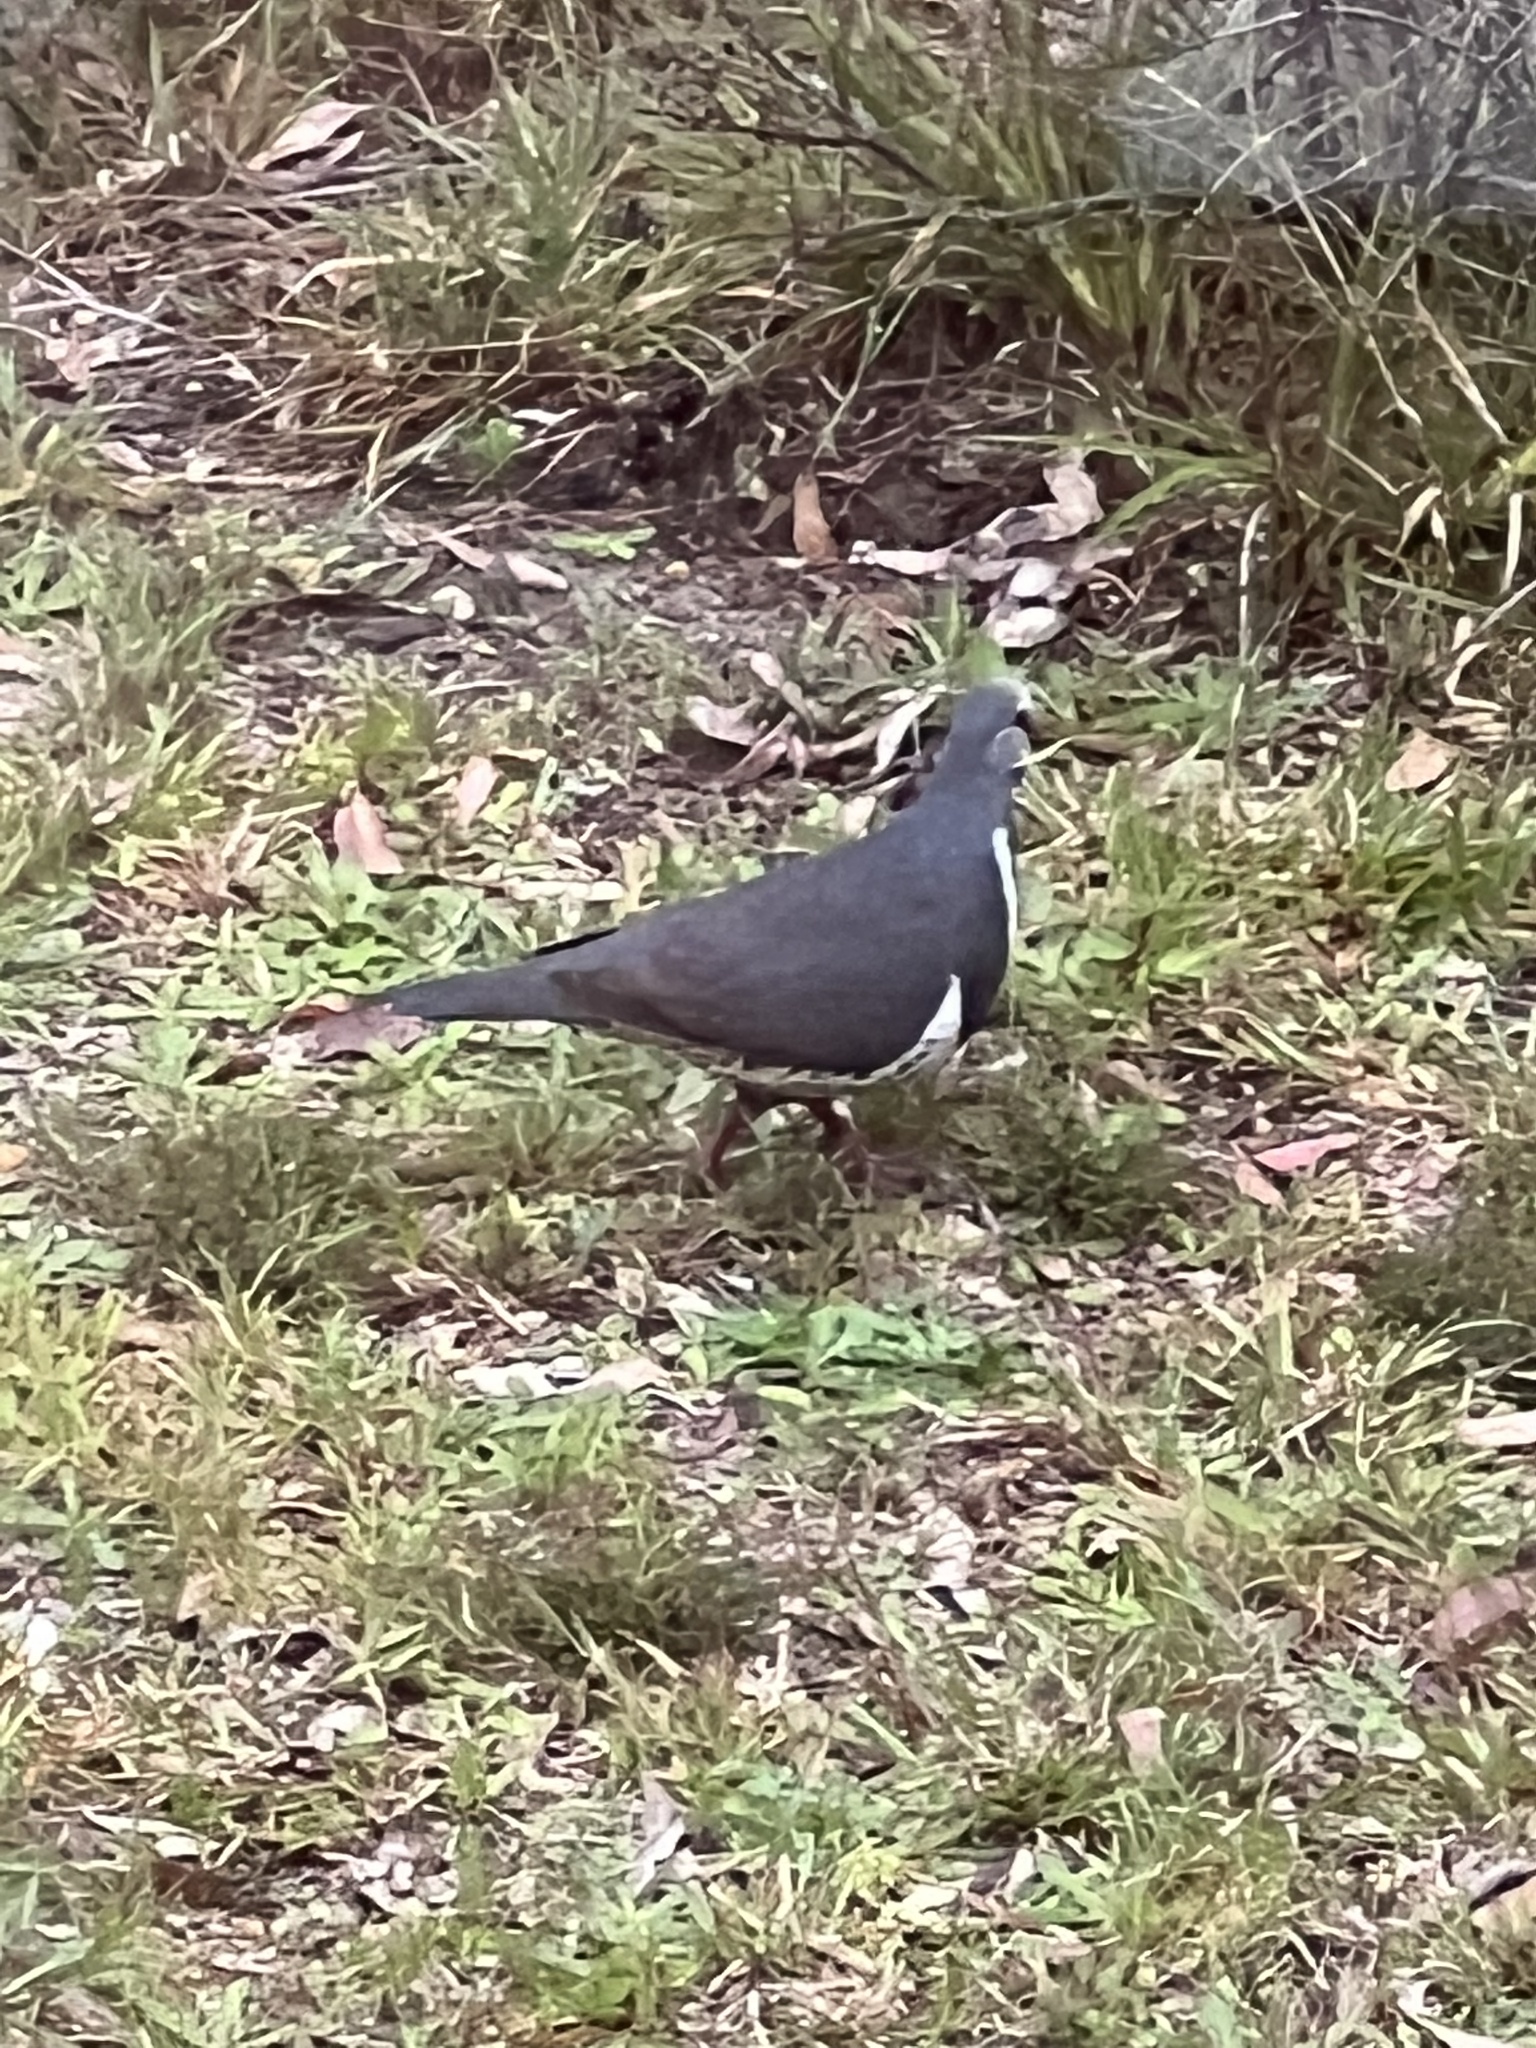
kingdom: Animalia
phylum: Chordata
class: Aves
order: Columbiformes
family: Columbidae
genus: Leucosarcia
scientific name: Leucosarcia melanoleuca
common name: Wonga pigeon
